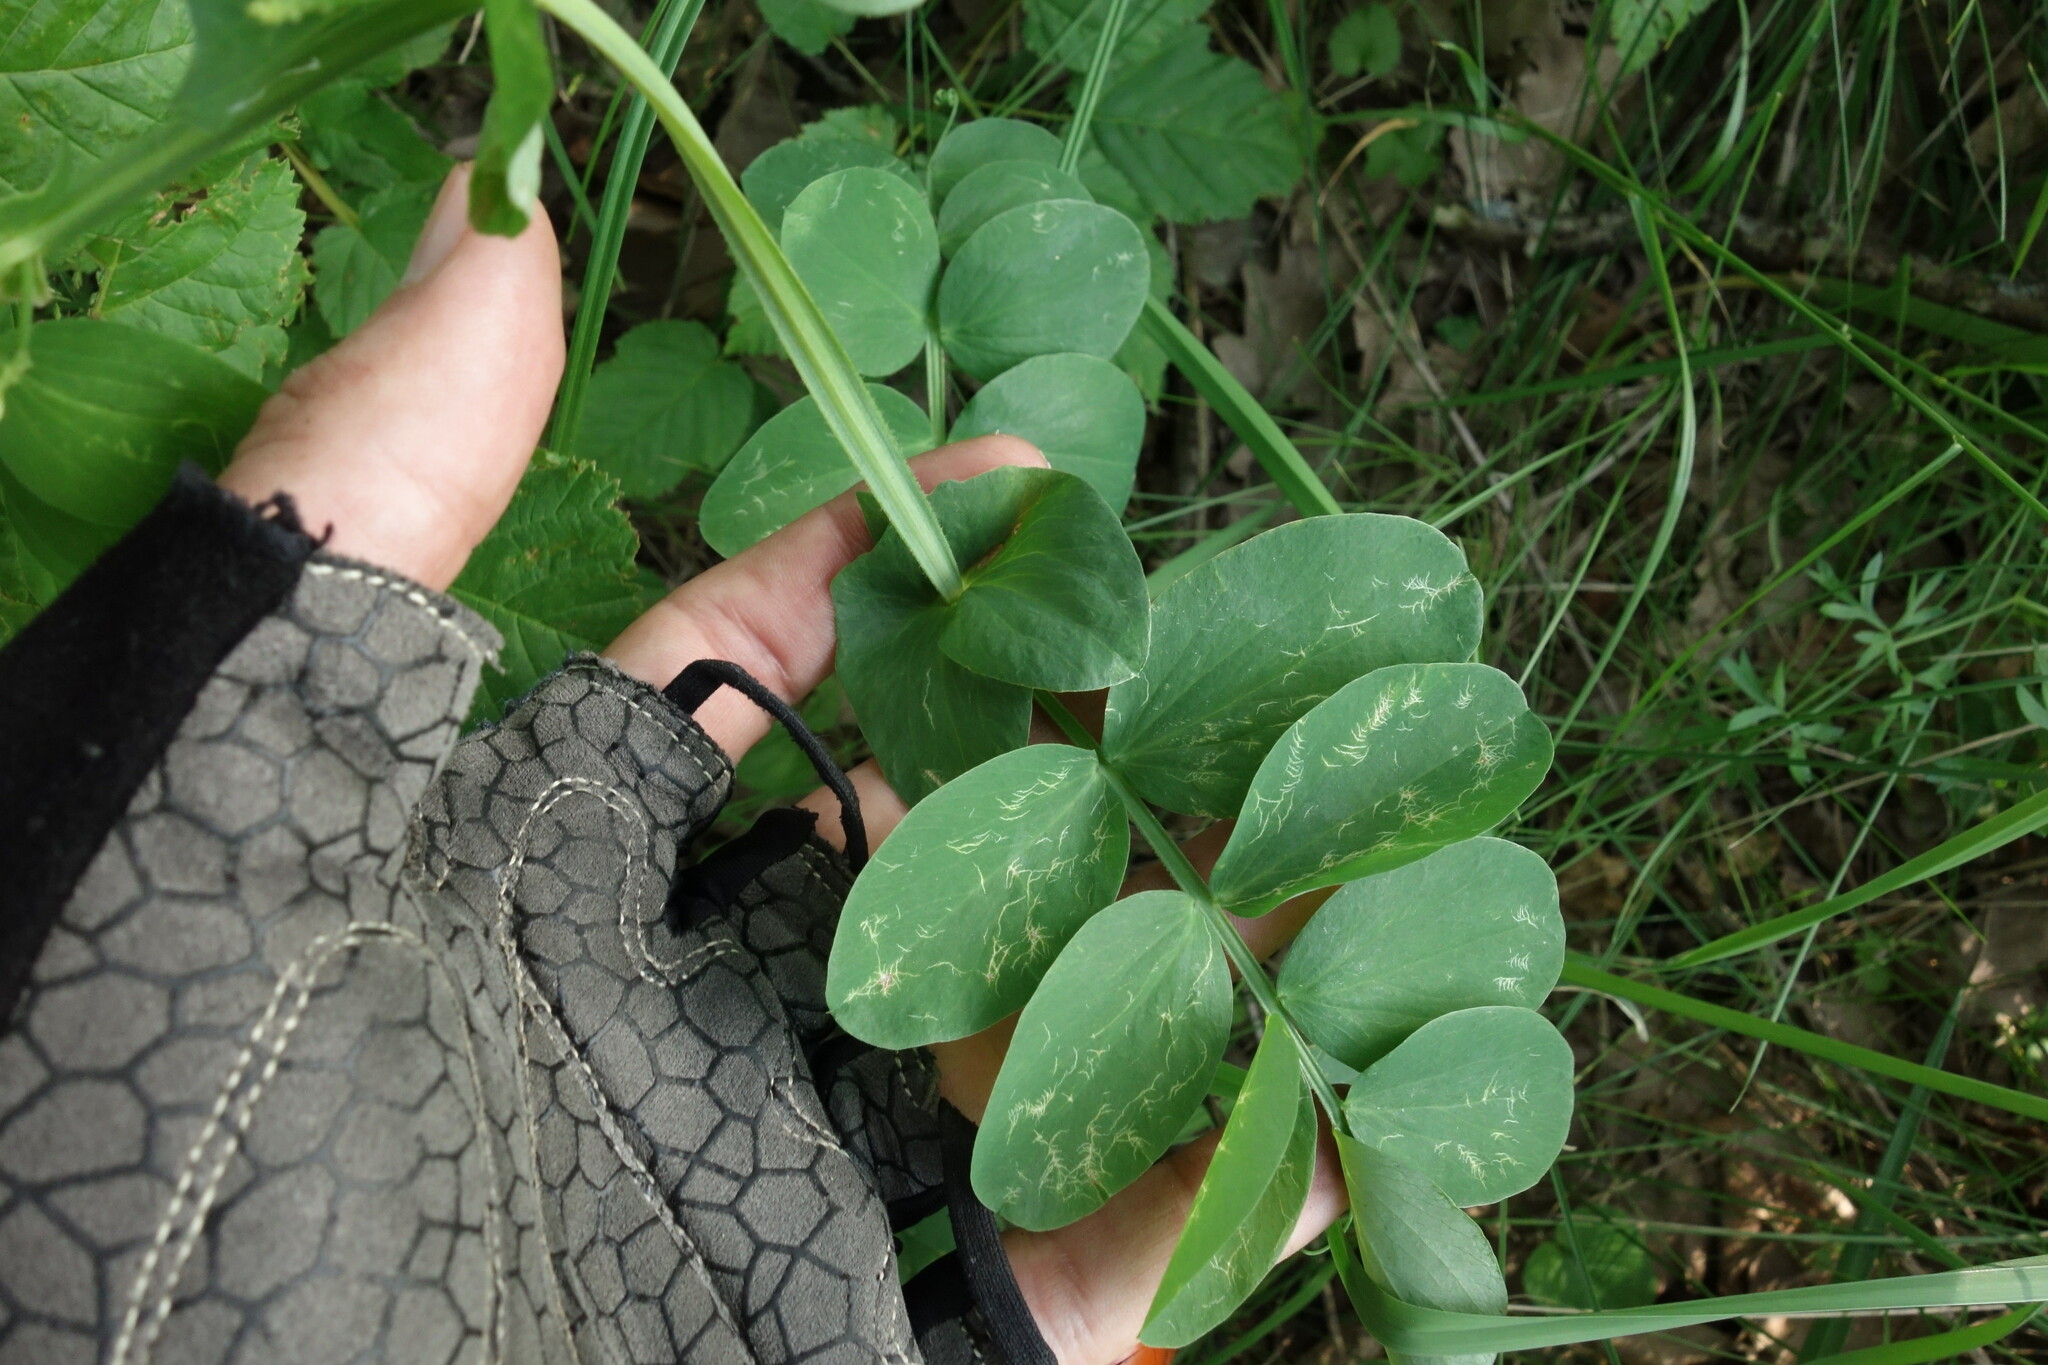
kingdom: Plantae
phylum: Tracheophyta
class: Magnoliopsida
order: Fabales
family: Fabaceae
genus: Lathyrus
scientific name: Lathyrus pisiformis
